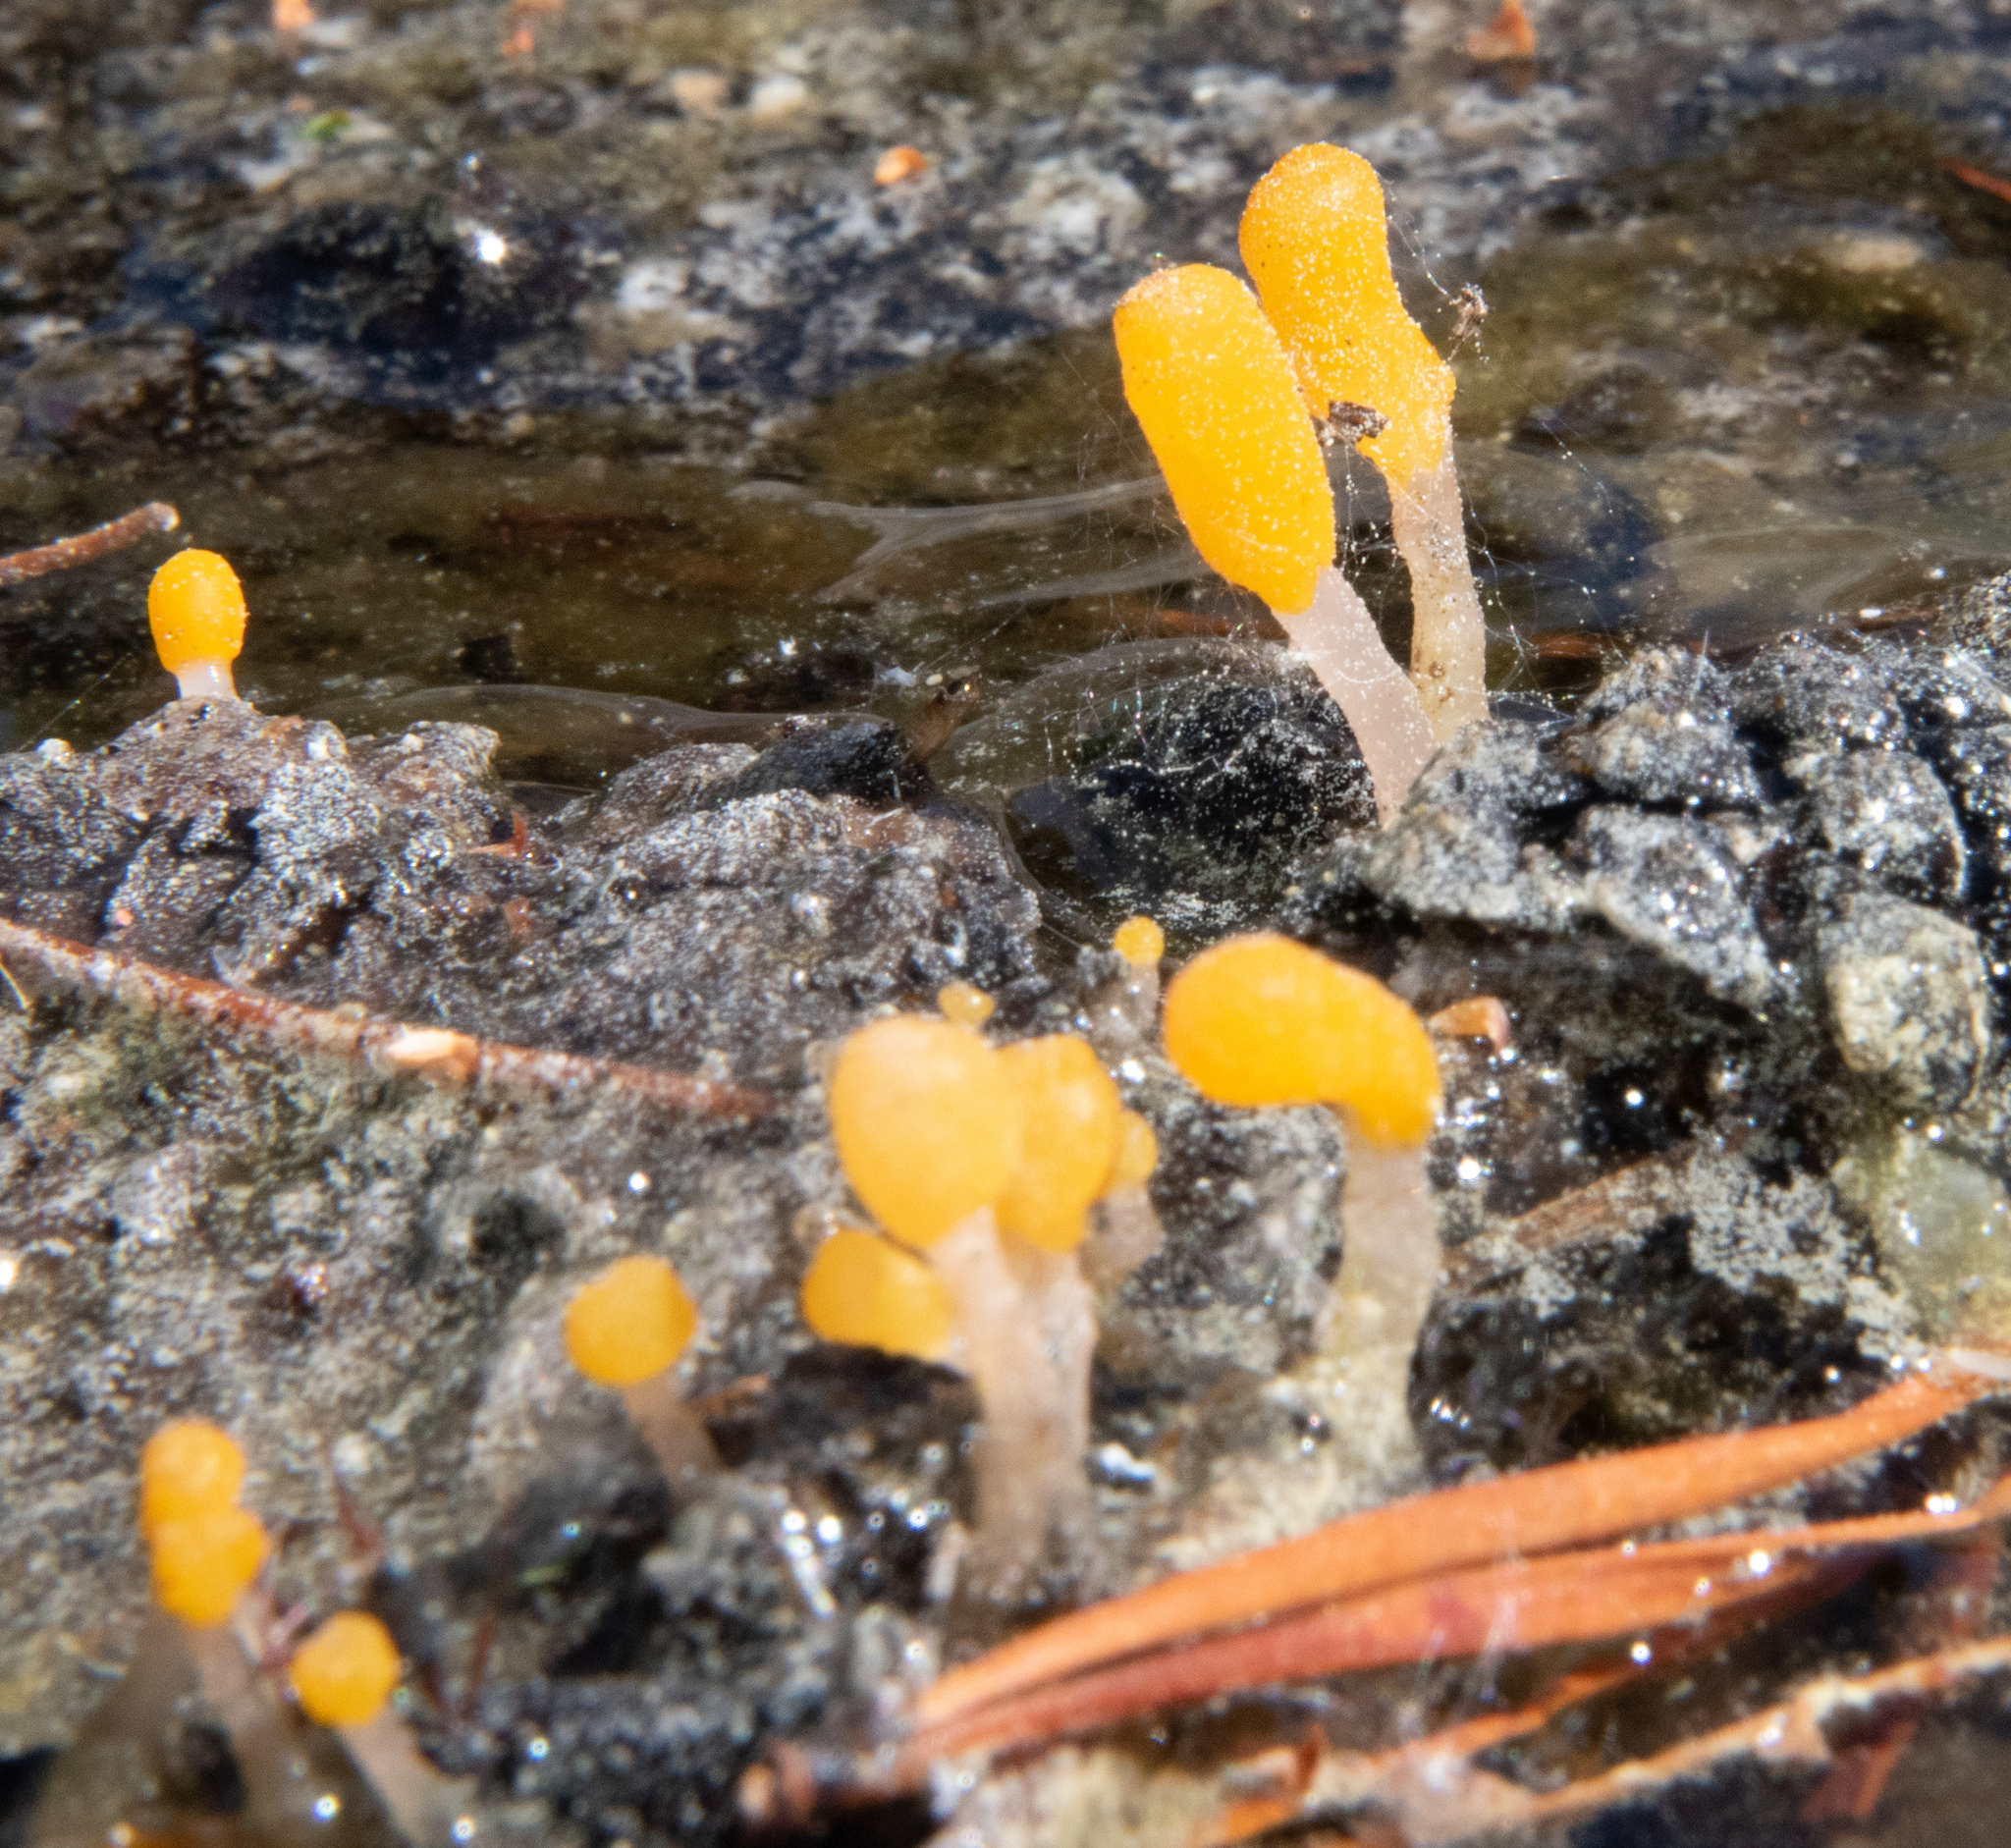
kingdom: Fungi
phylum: Ascomycota
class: Leotiomycetes
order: Helotiales
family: Sclerotiniaceae
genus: Mitrula
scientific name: Mitrula elegans
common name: Swamp beacon
